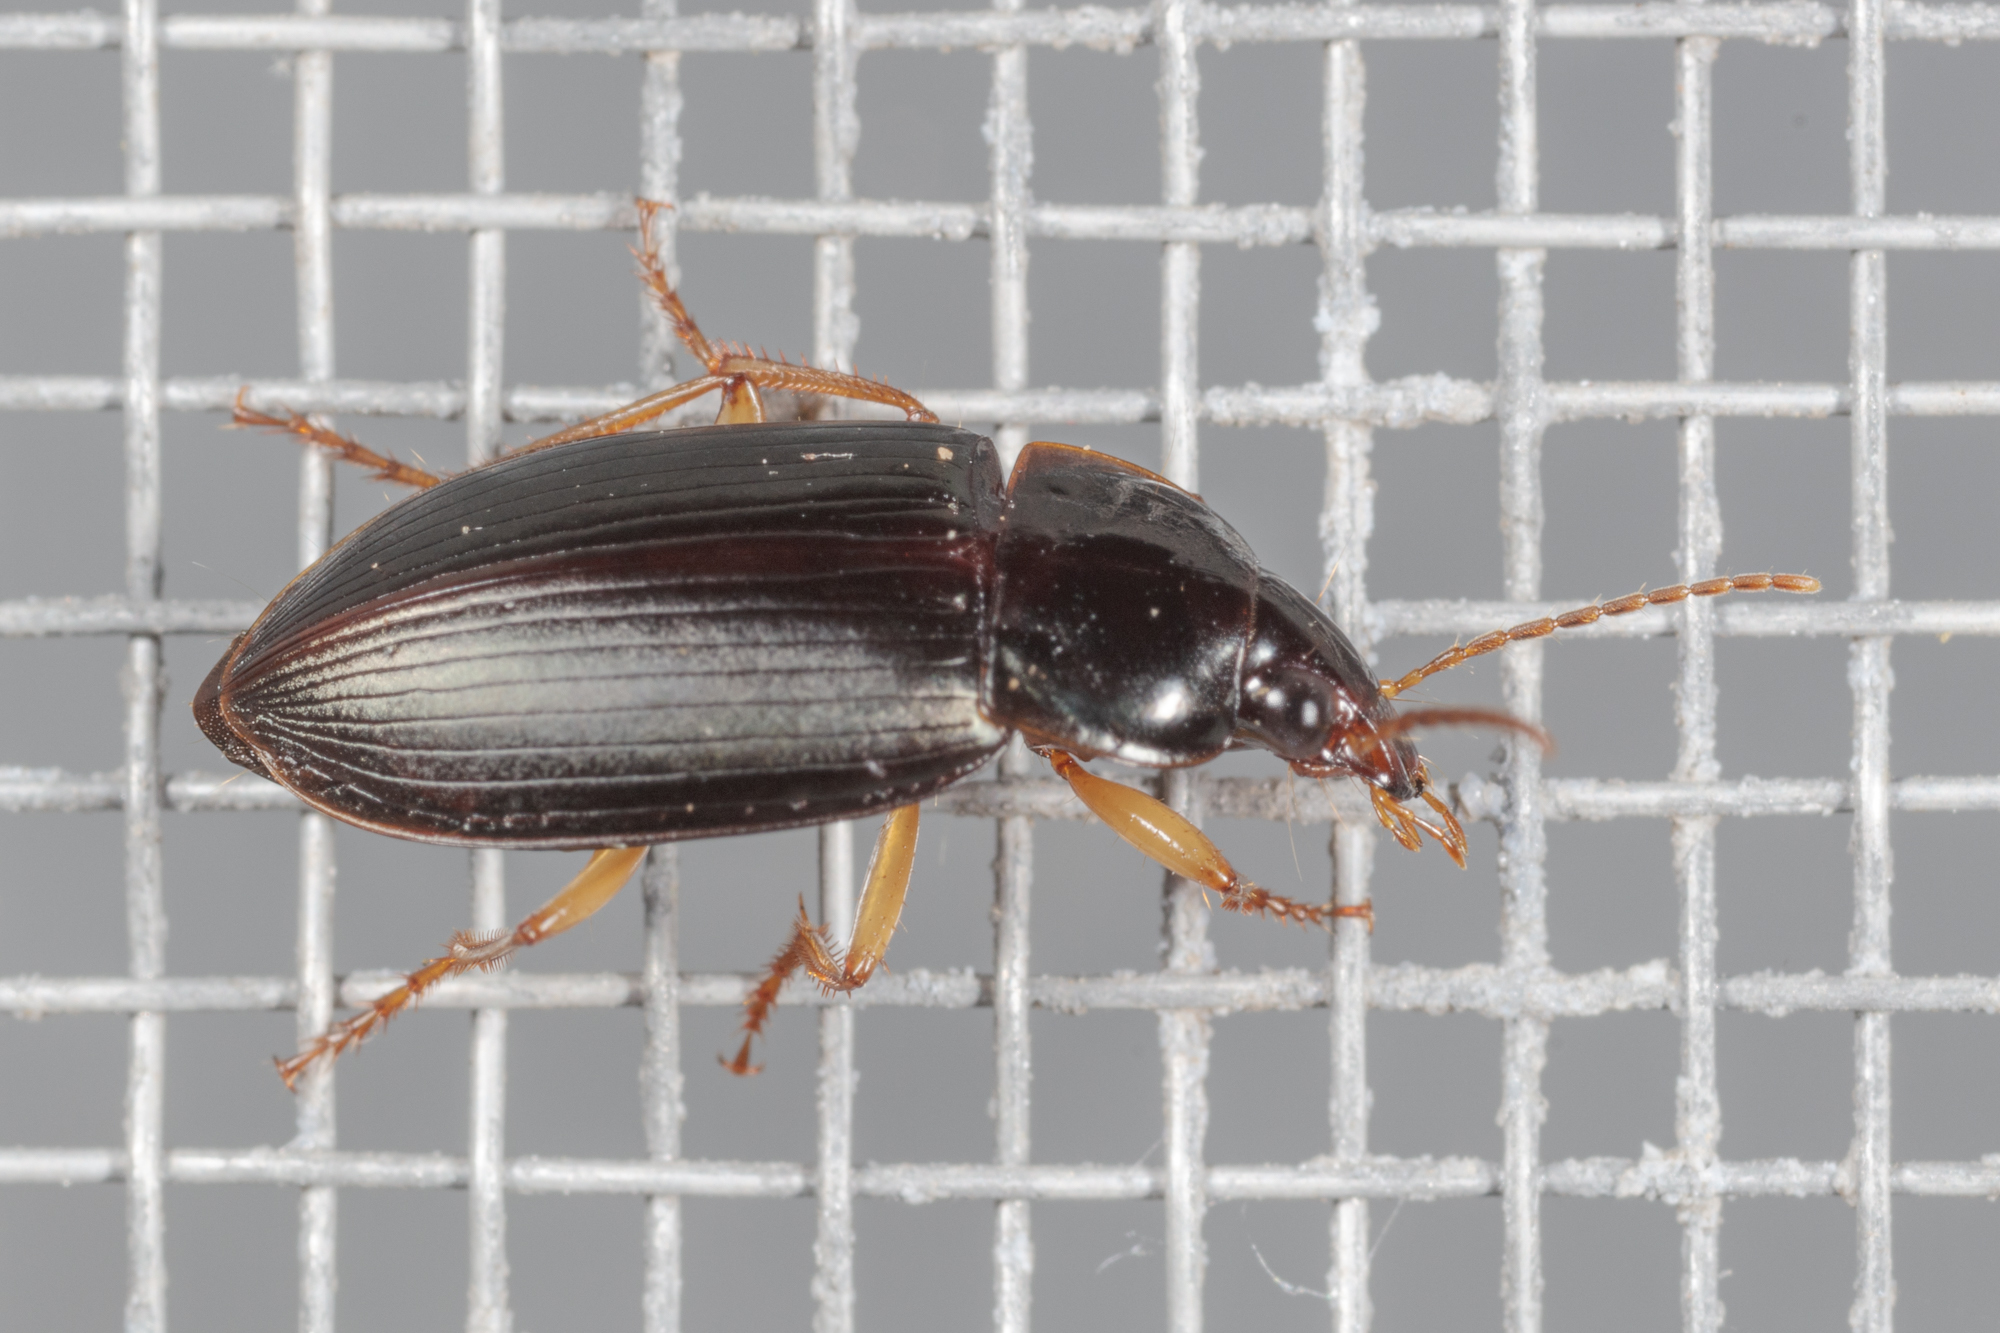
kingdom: Animalia
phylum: Arthropoda
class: Insecta
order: Coleoptera
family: Carabidae
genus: Notiobia
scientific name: Notiobia terminata
